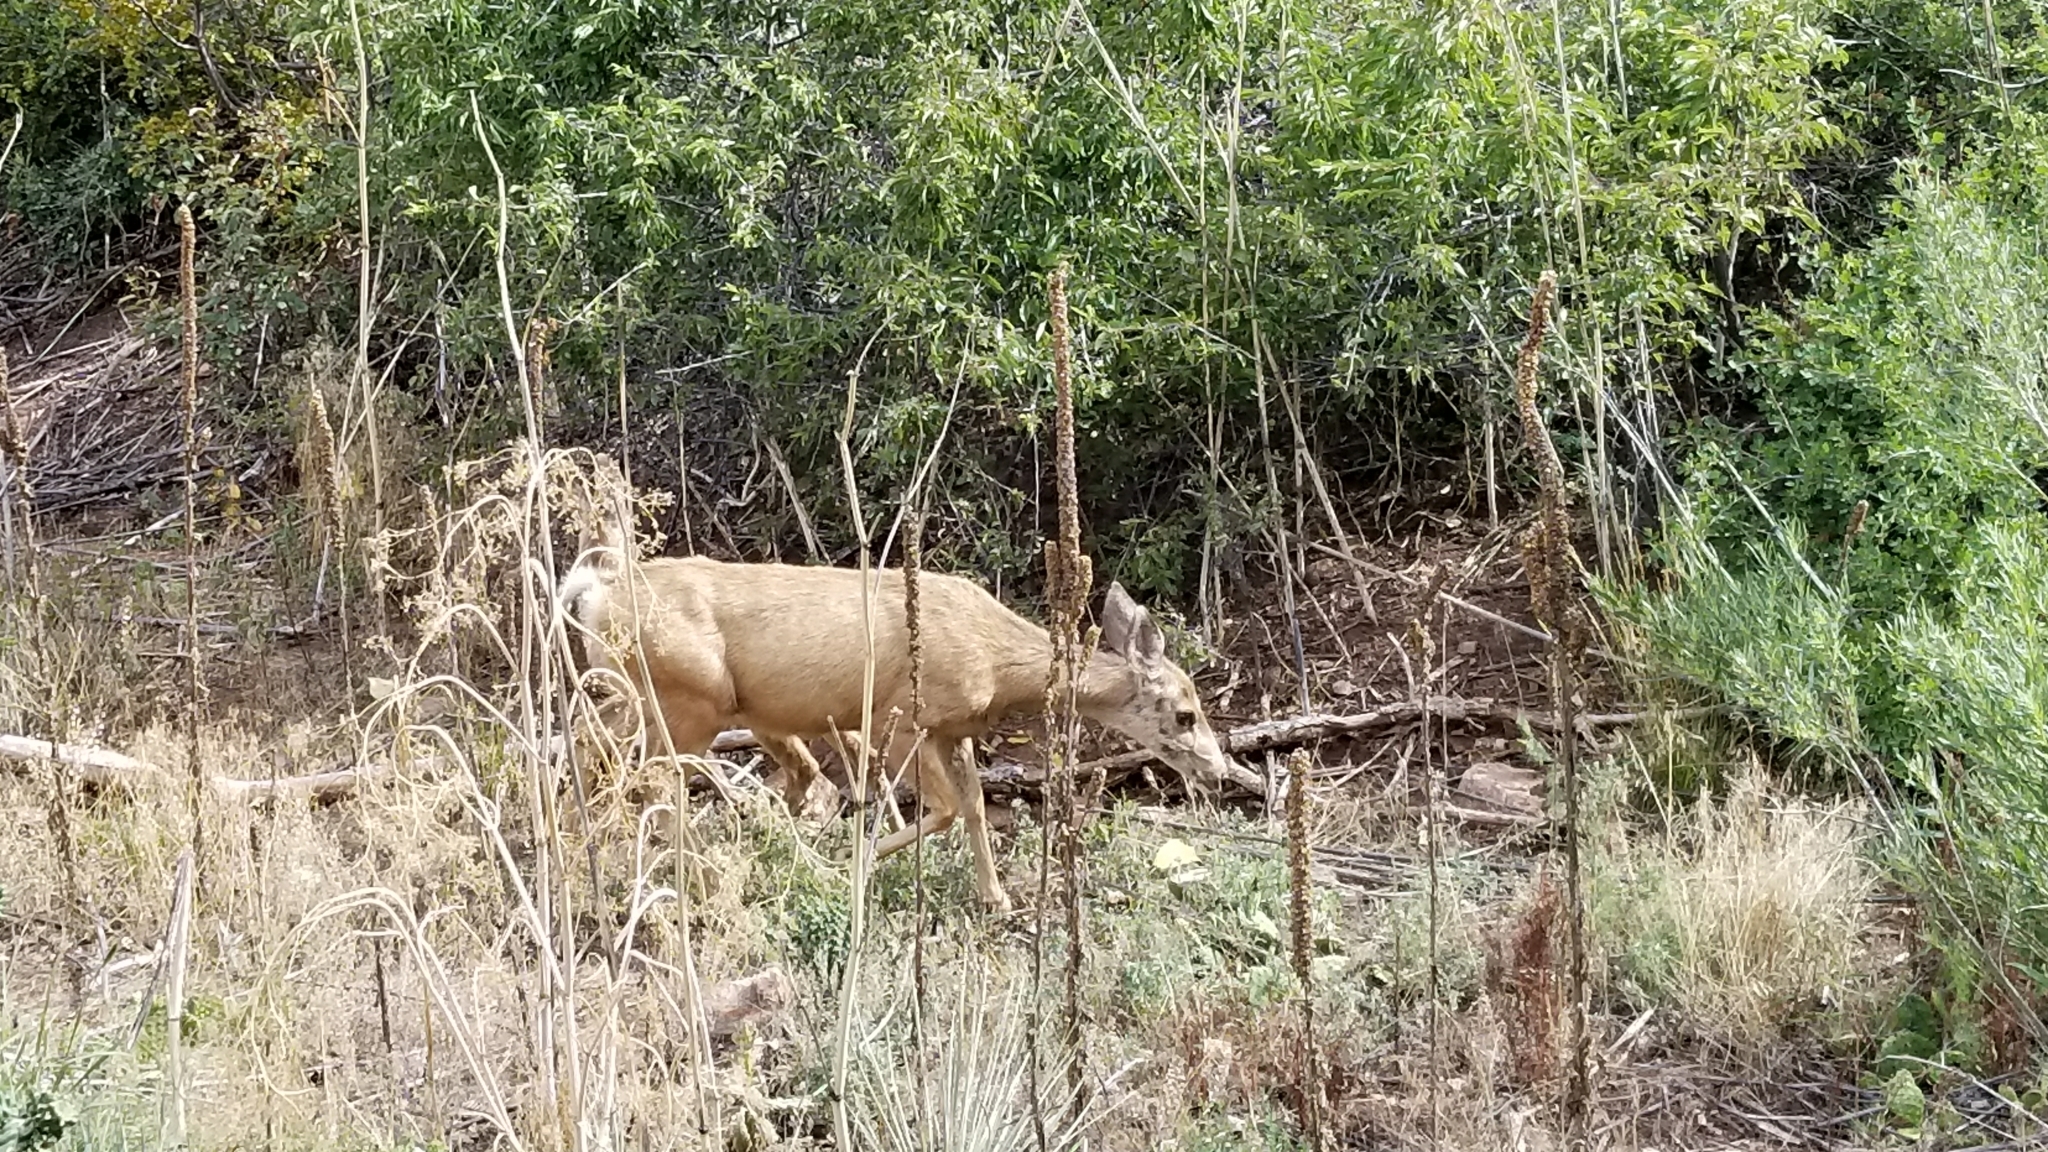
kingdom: Animalia
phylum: Chordata
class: Mammalia
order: Artiodactyla
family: Cervidae
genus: Odocoileus
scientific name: Odocoileus hemionus
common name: Mule deer
